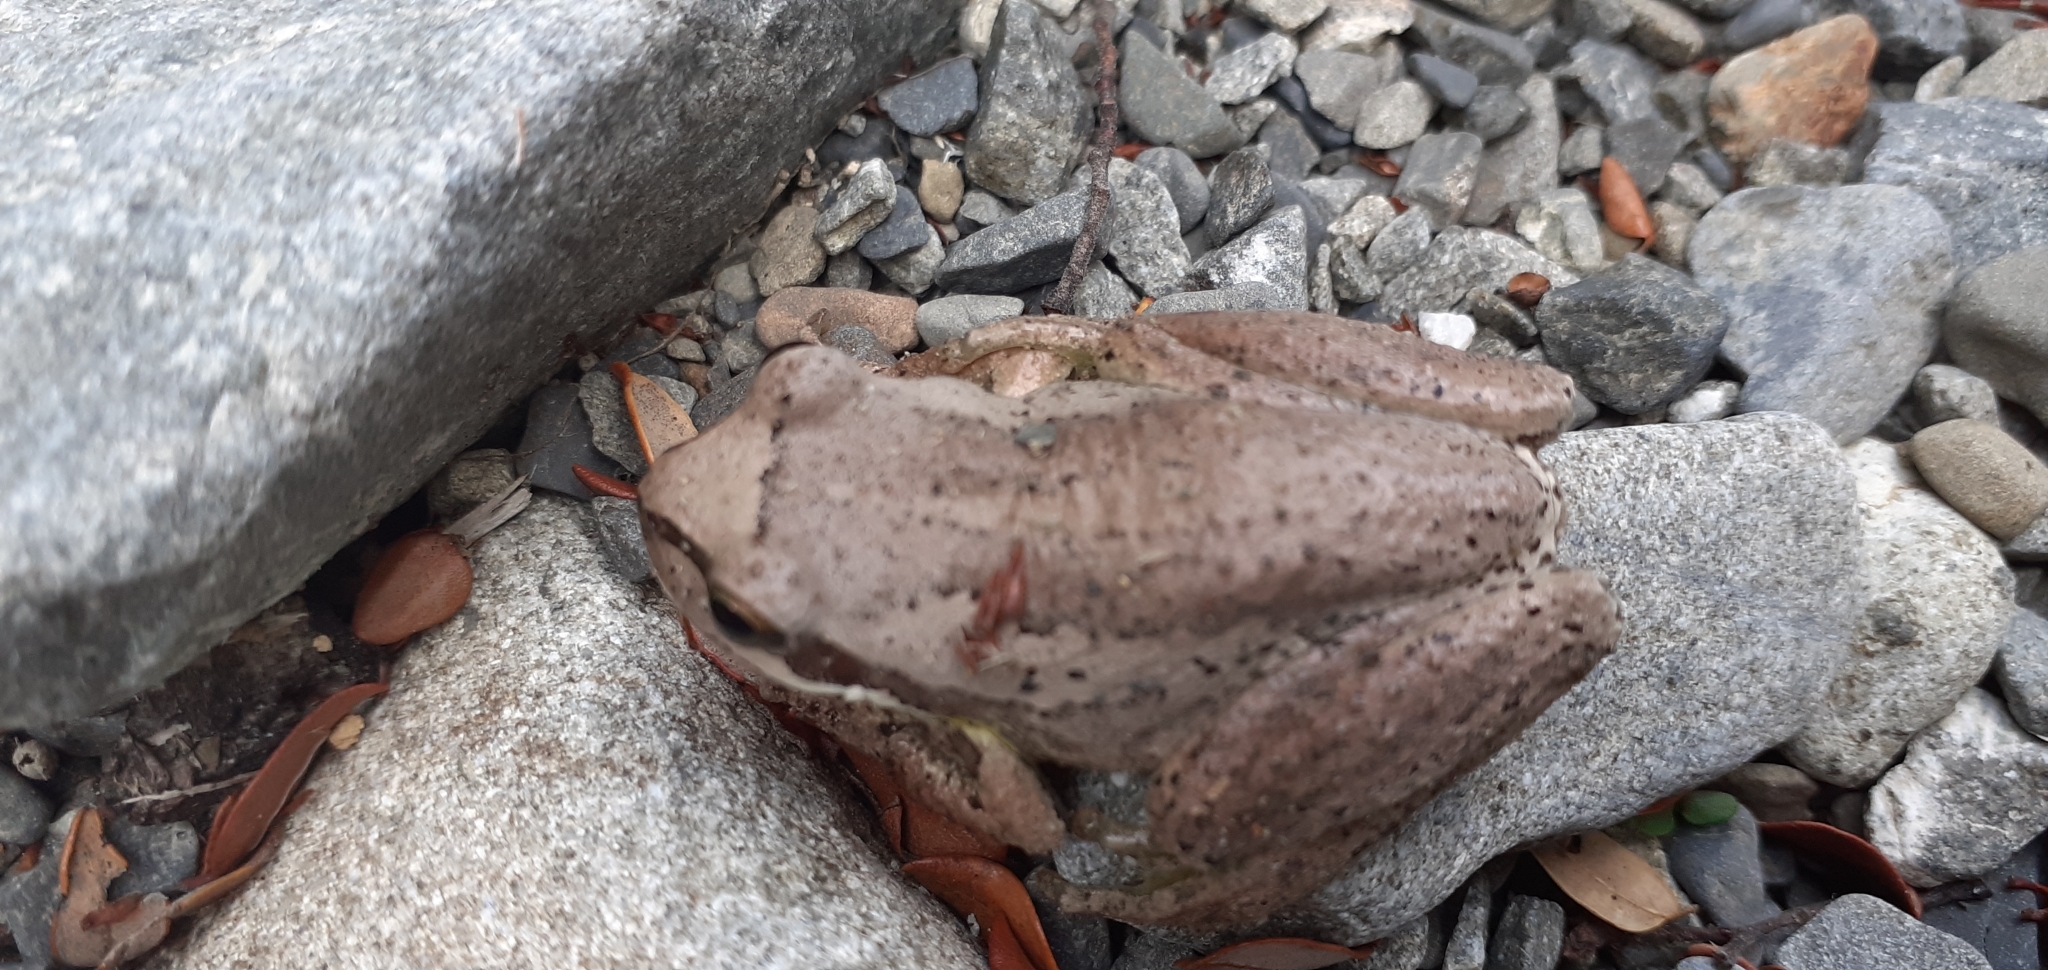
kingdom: Animalia
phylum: Chordata
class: Amphibia
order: Anura
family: Pelodryadidae
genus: Litoria
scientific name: Litoria ewingii
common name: Southern brown tree frog
